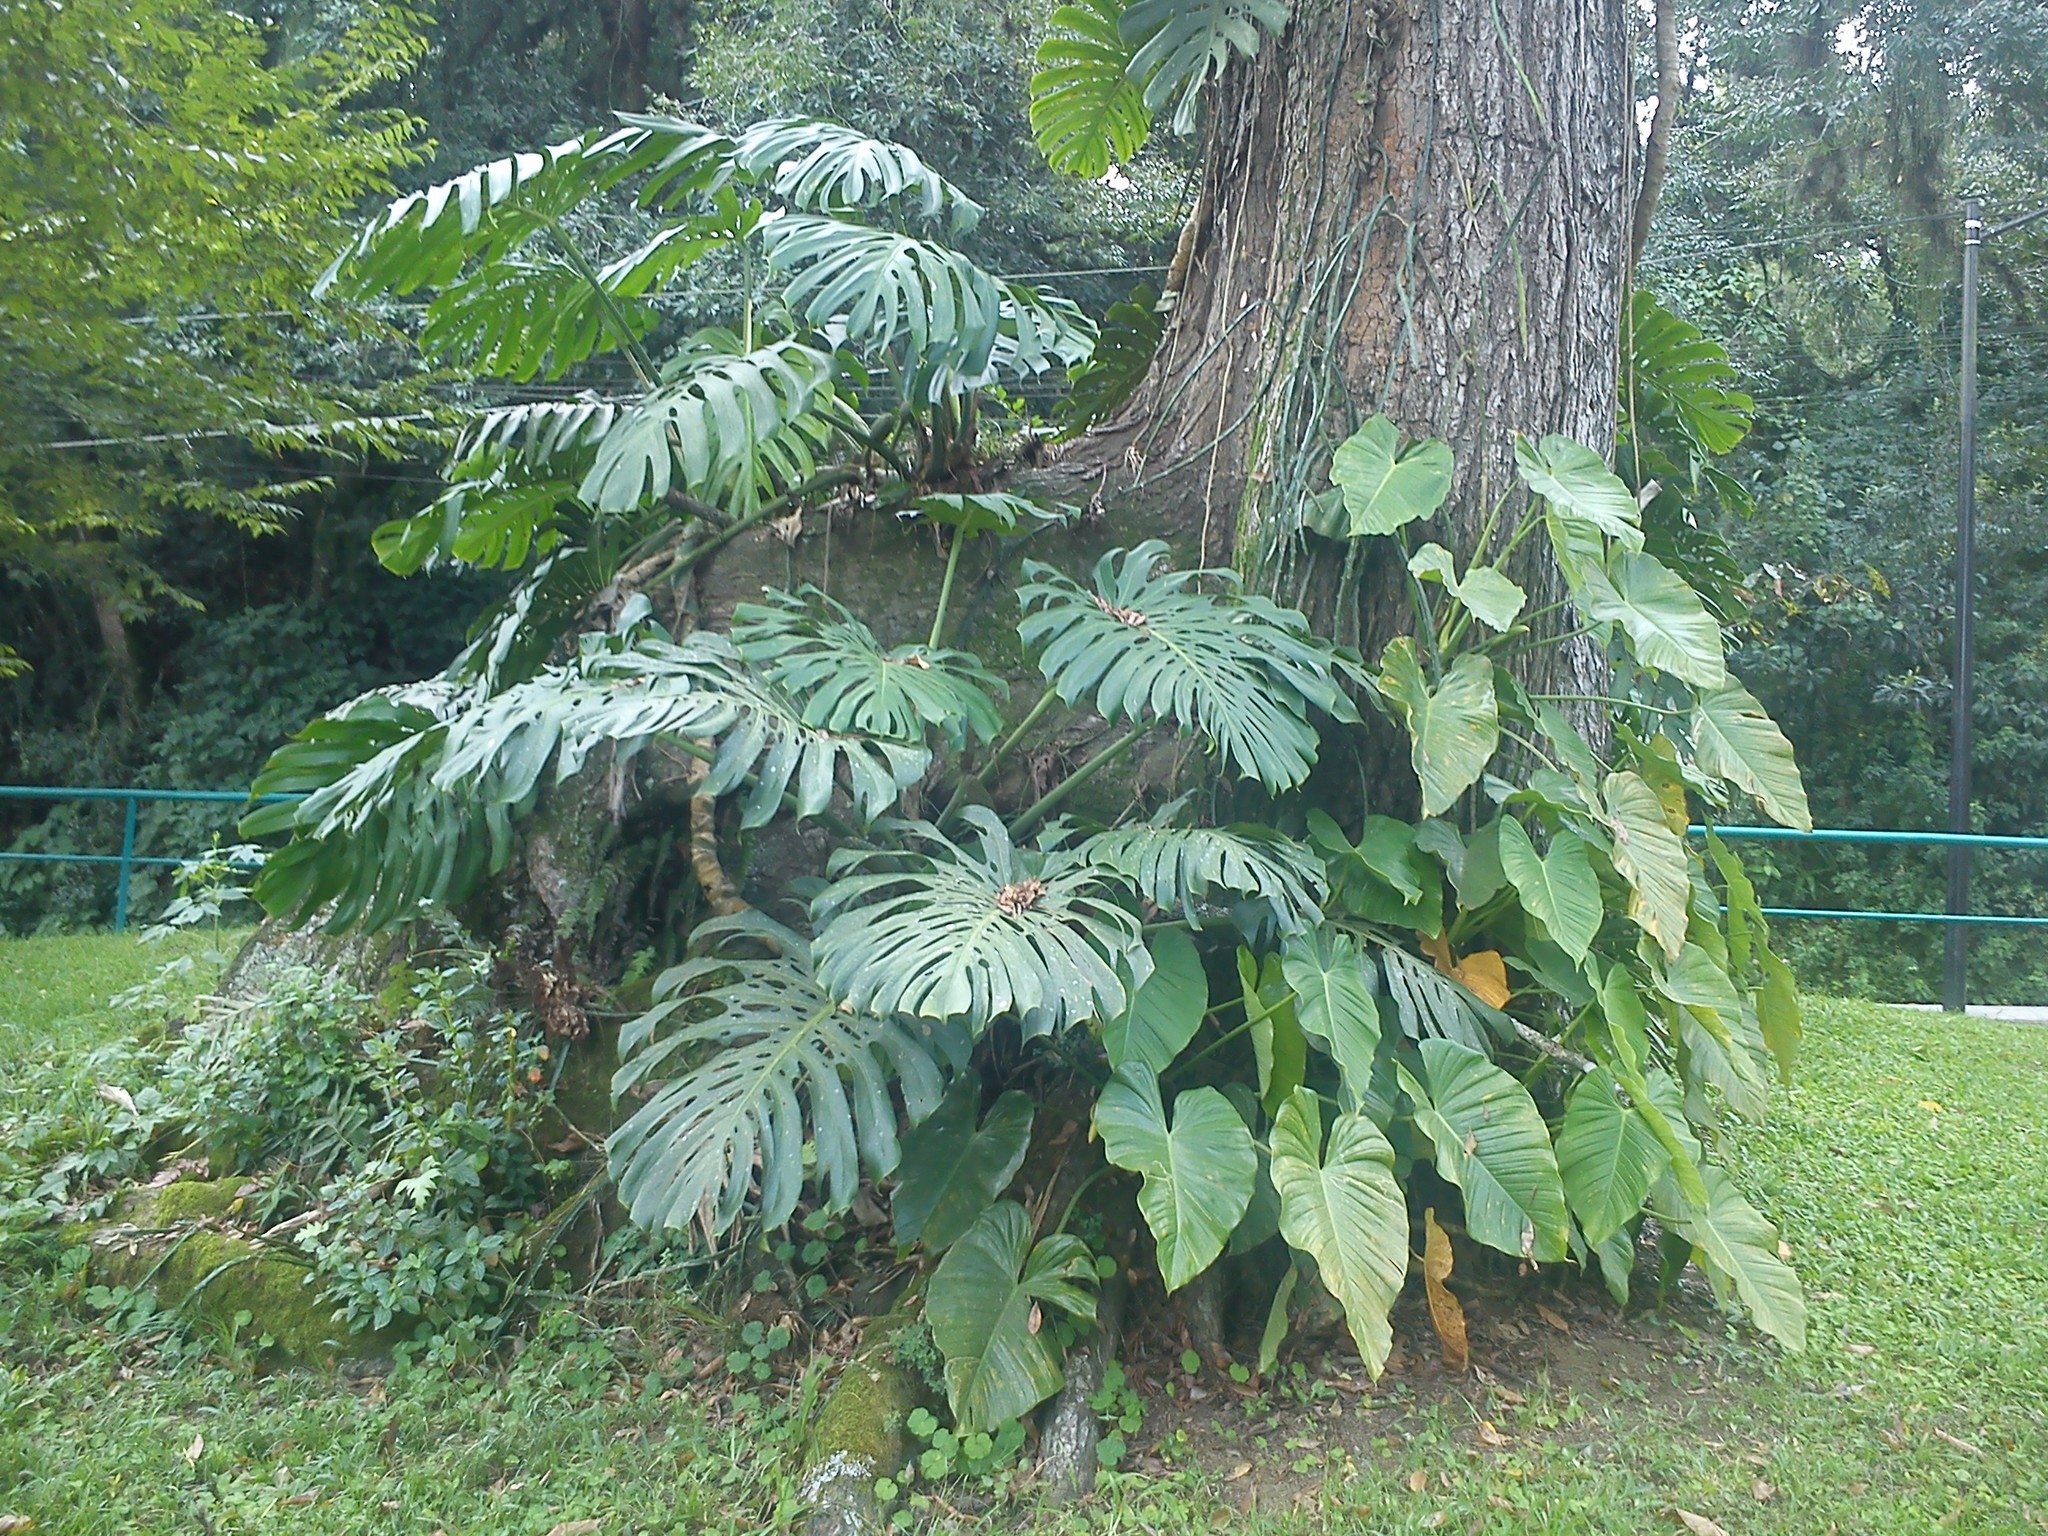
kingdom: Plantae
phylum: Tracheophyta
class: Liliopsida
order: Alismatales
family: Araceae
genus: Monstera
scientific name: Monstera deliciosa
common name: Cut-leaf-philodendron
